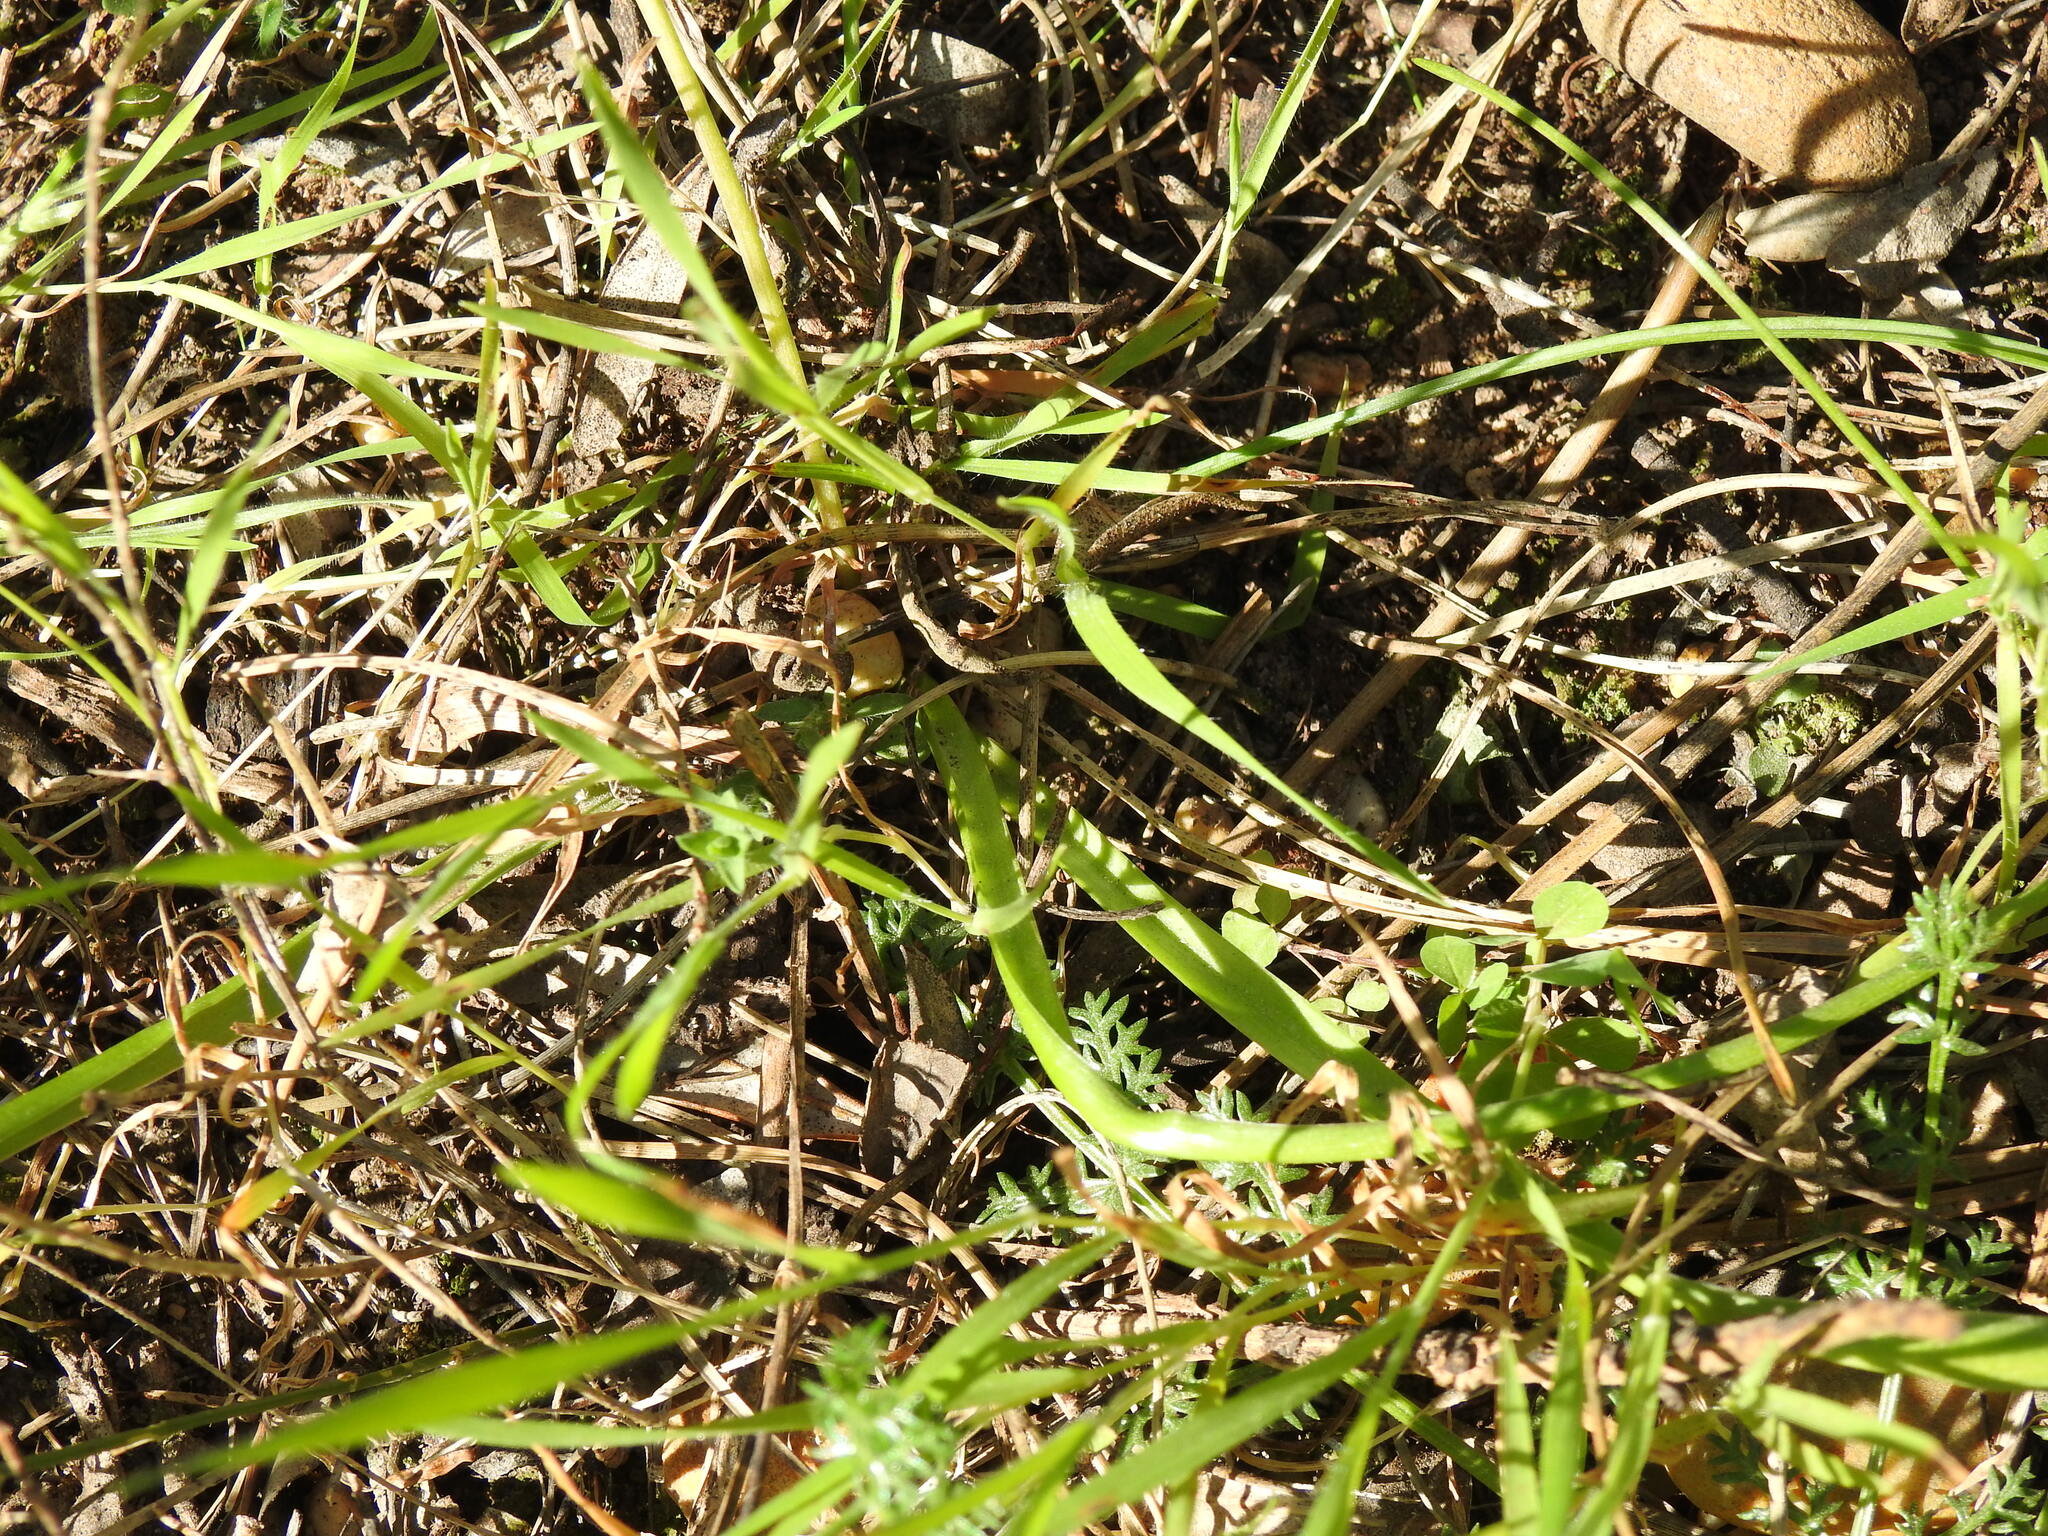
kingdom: Plantae
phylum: Tracheophyta
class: Liliopsida
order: Asparagales
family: Asparagaceae
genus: Scilla
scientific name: Scilla verna
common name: Spring squill
